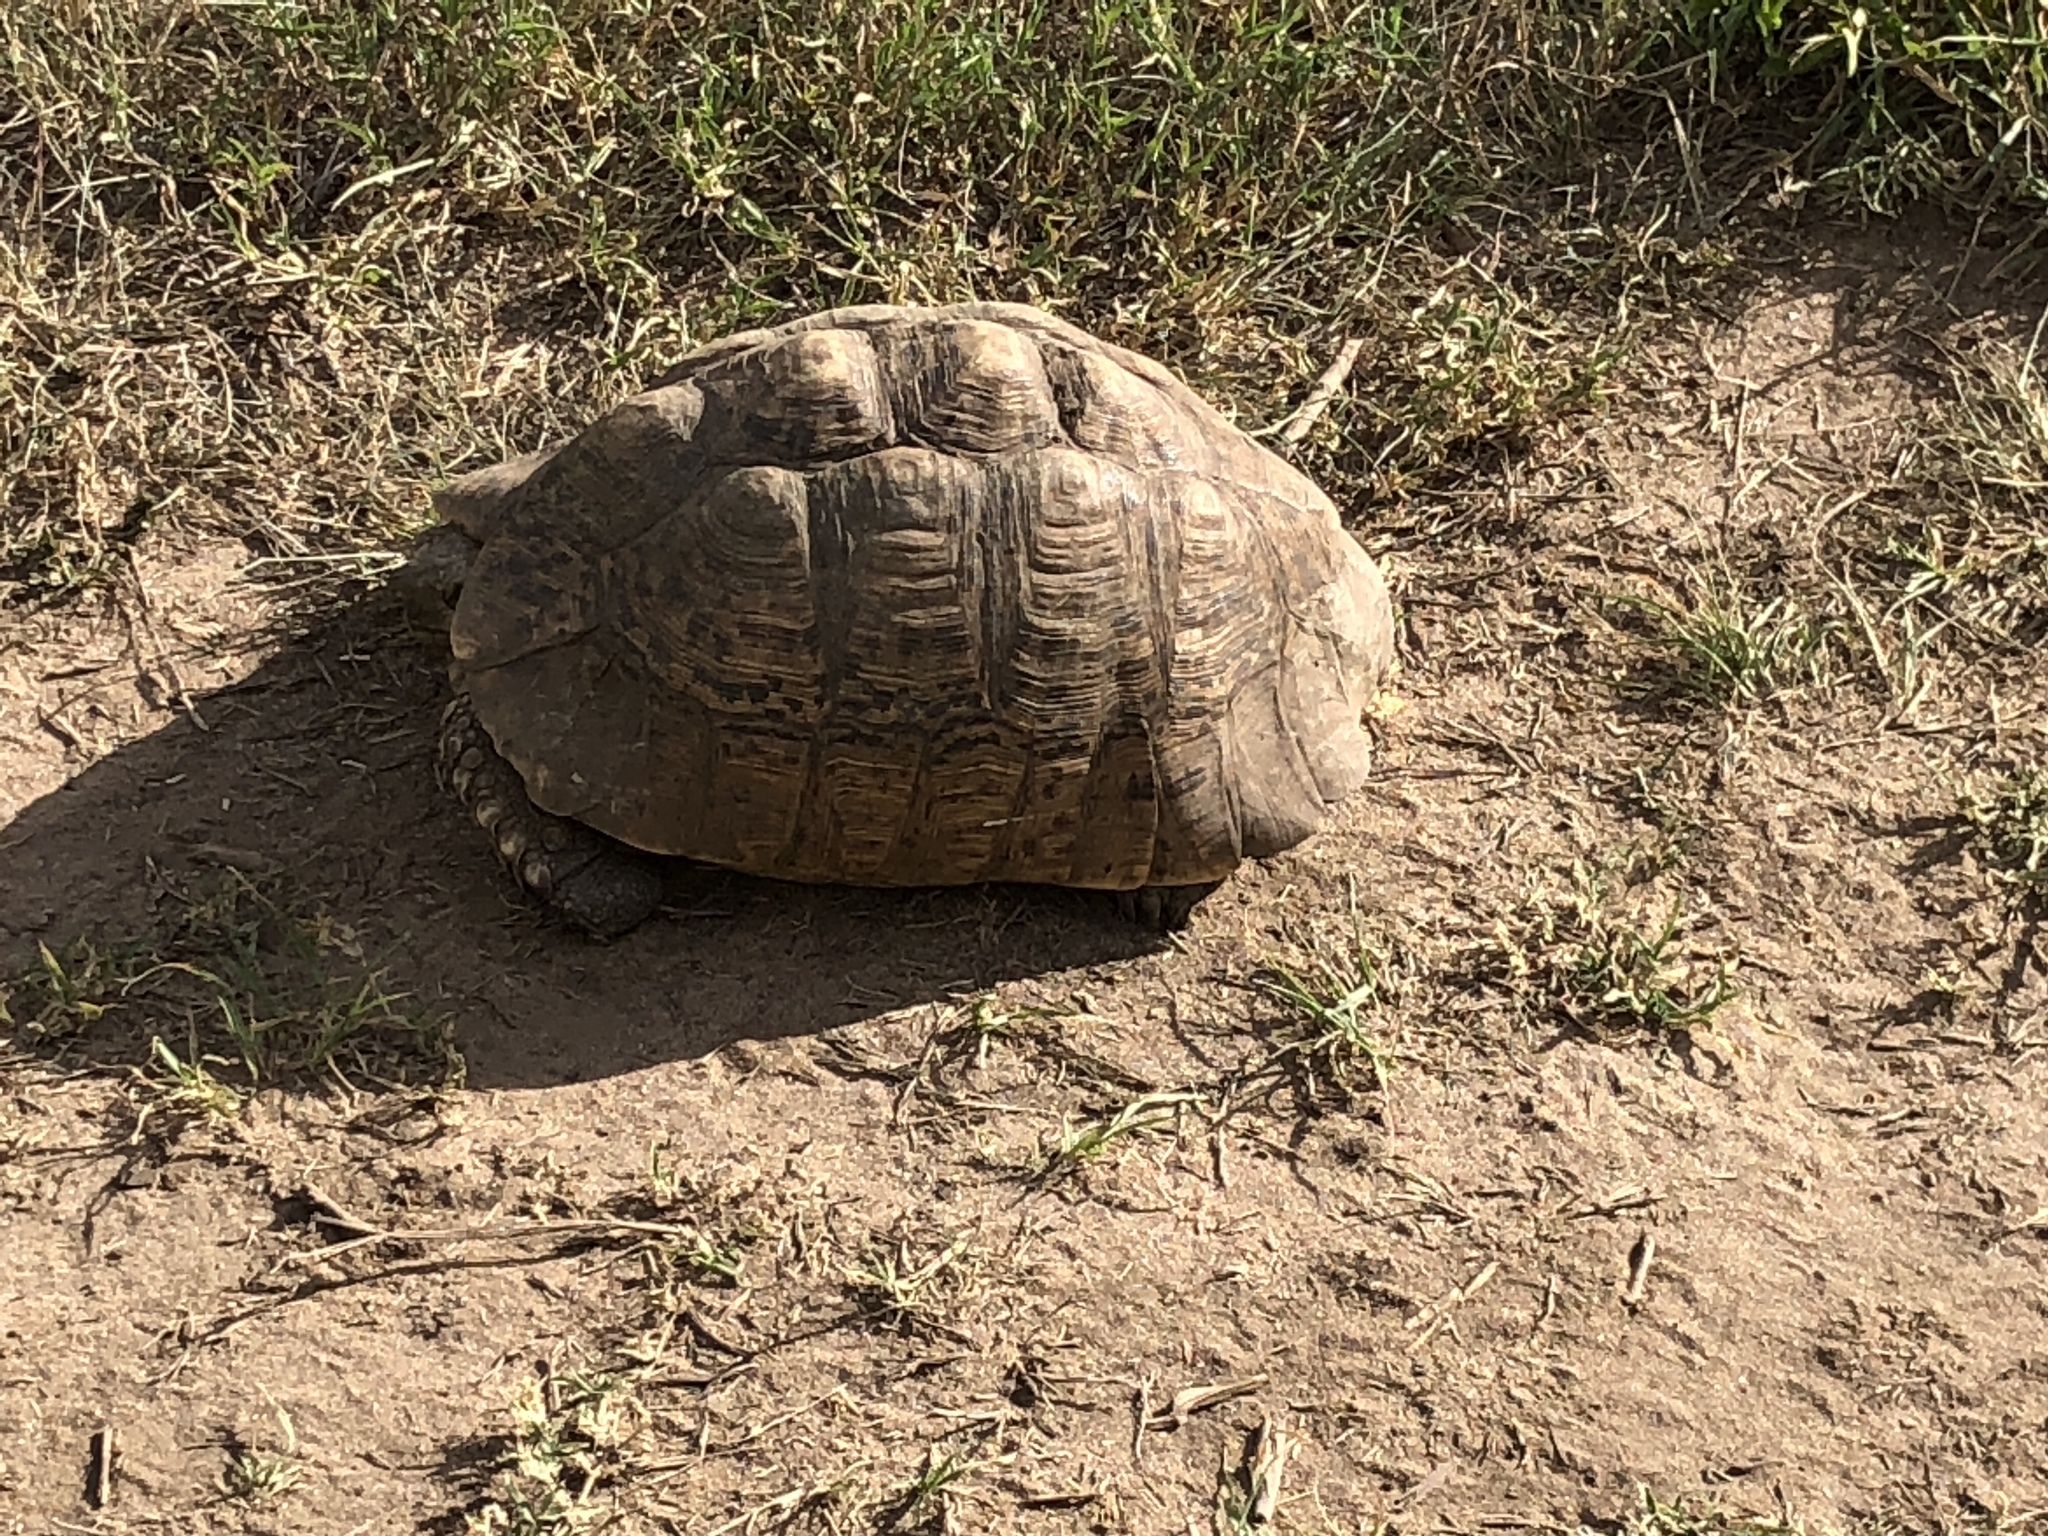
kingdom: Animalia
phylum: Chordata
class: Testudines
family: Testudinidae
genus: Stigmochelys
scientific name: Stigmochelys pardalis
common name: Leopard tortoise
